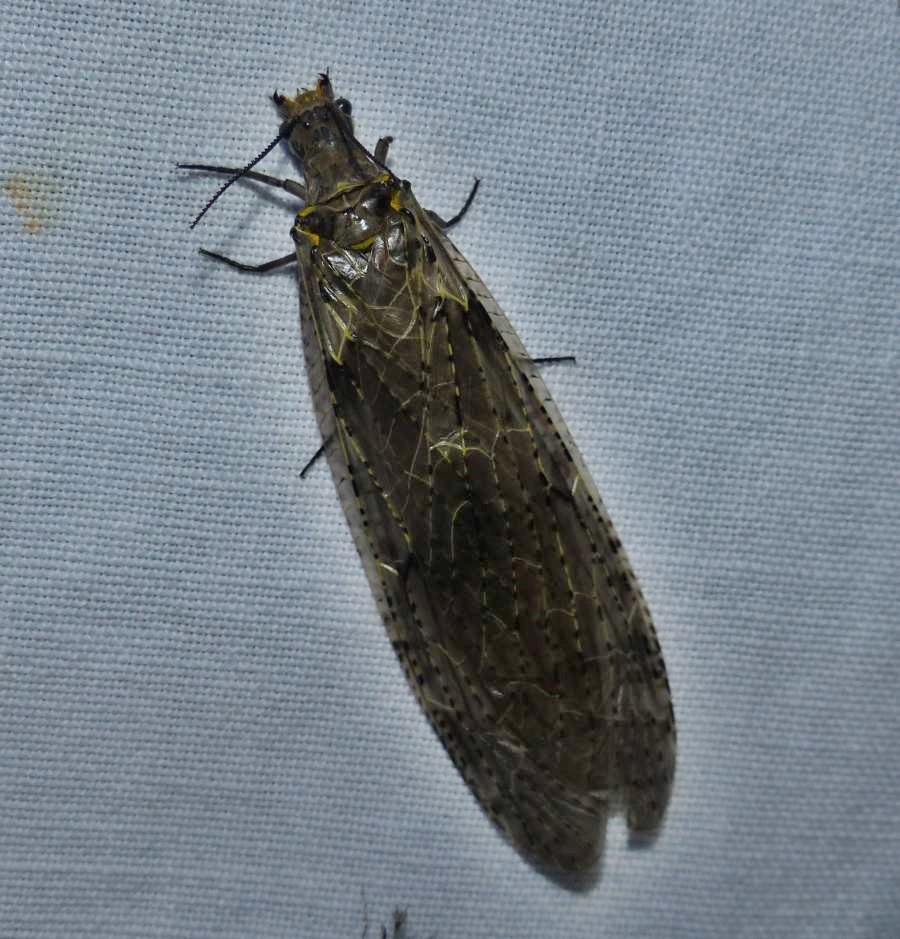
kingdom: Animalia
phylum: Arthropoda
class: Insecta
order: Megaloptera
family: Corydalidae
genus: Chauliodes
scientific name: Chauliodes rastricornis
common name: Spring fishfly
